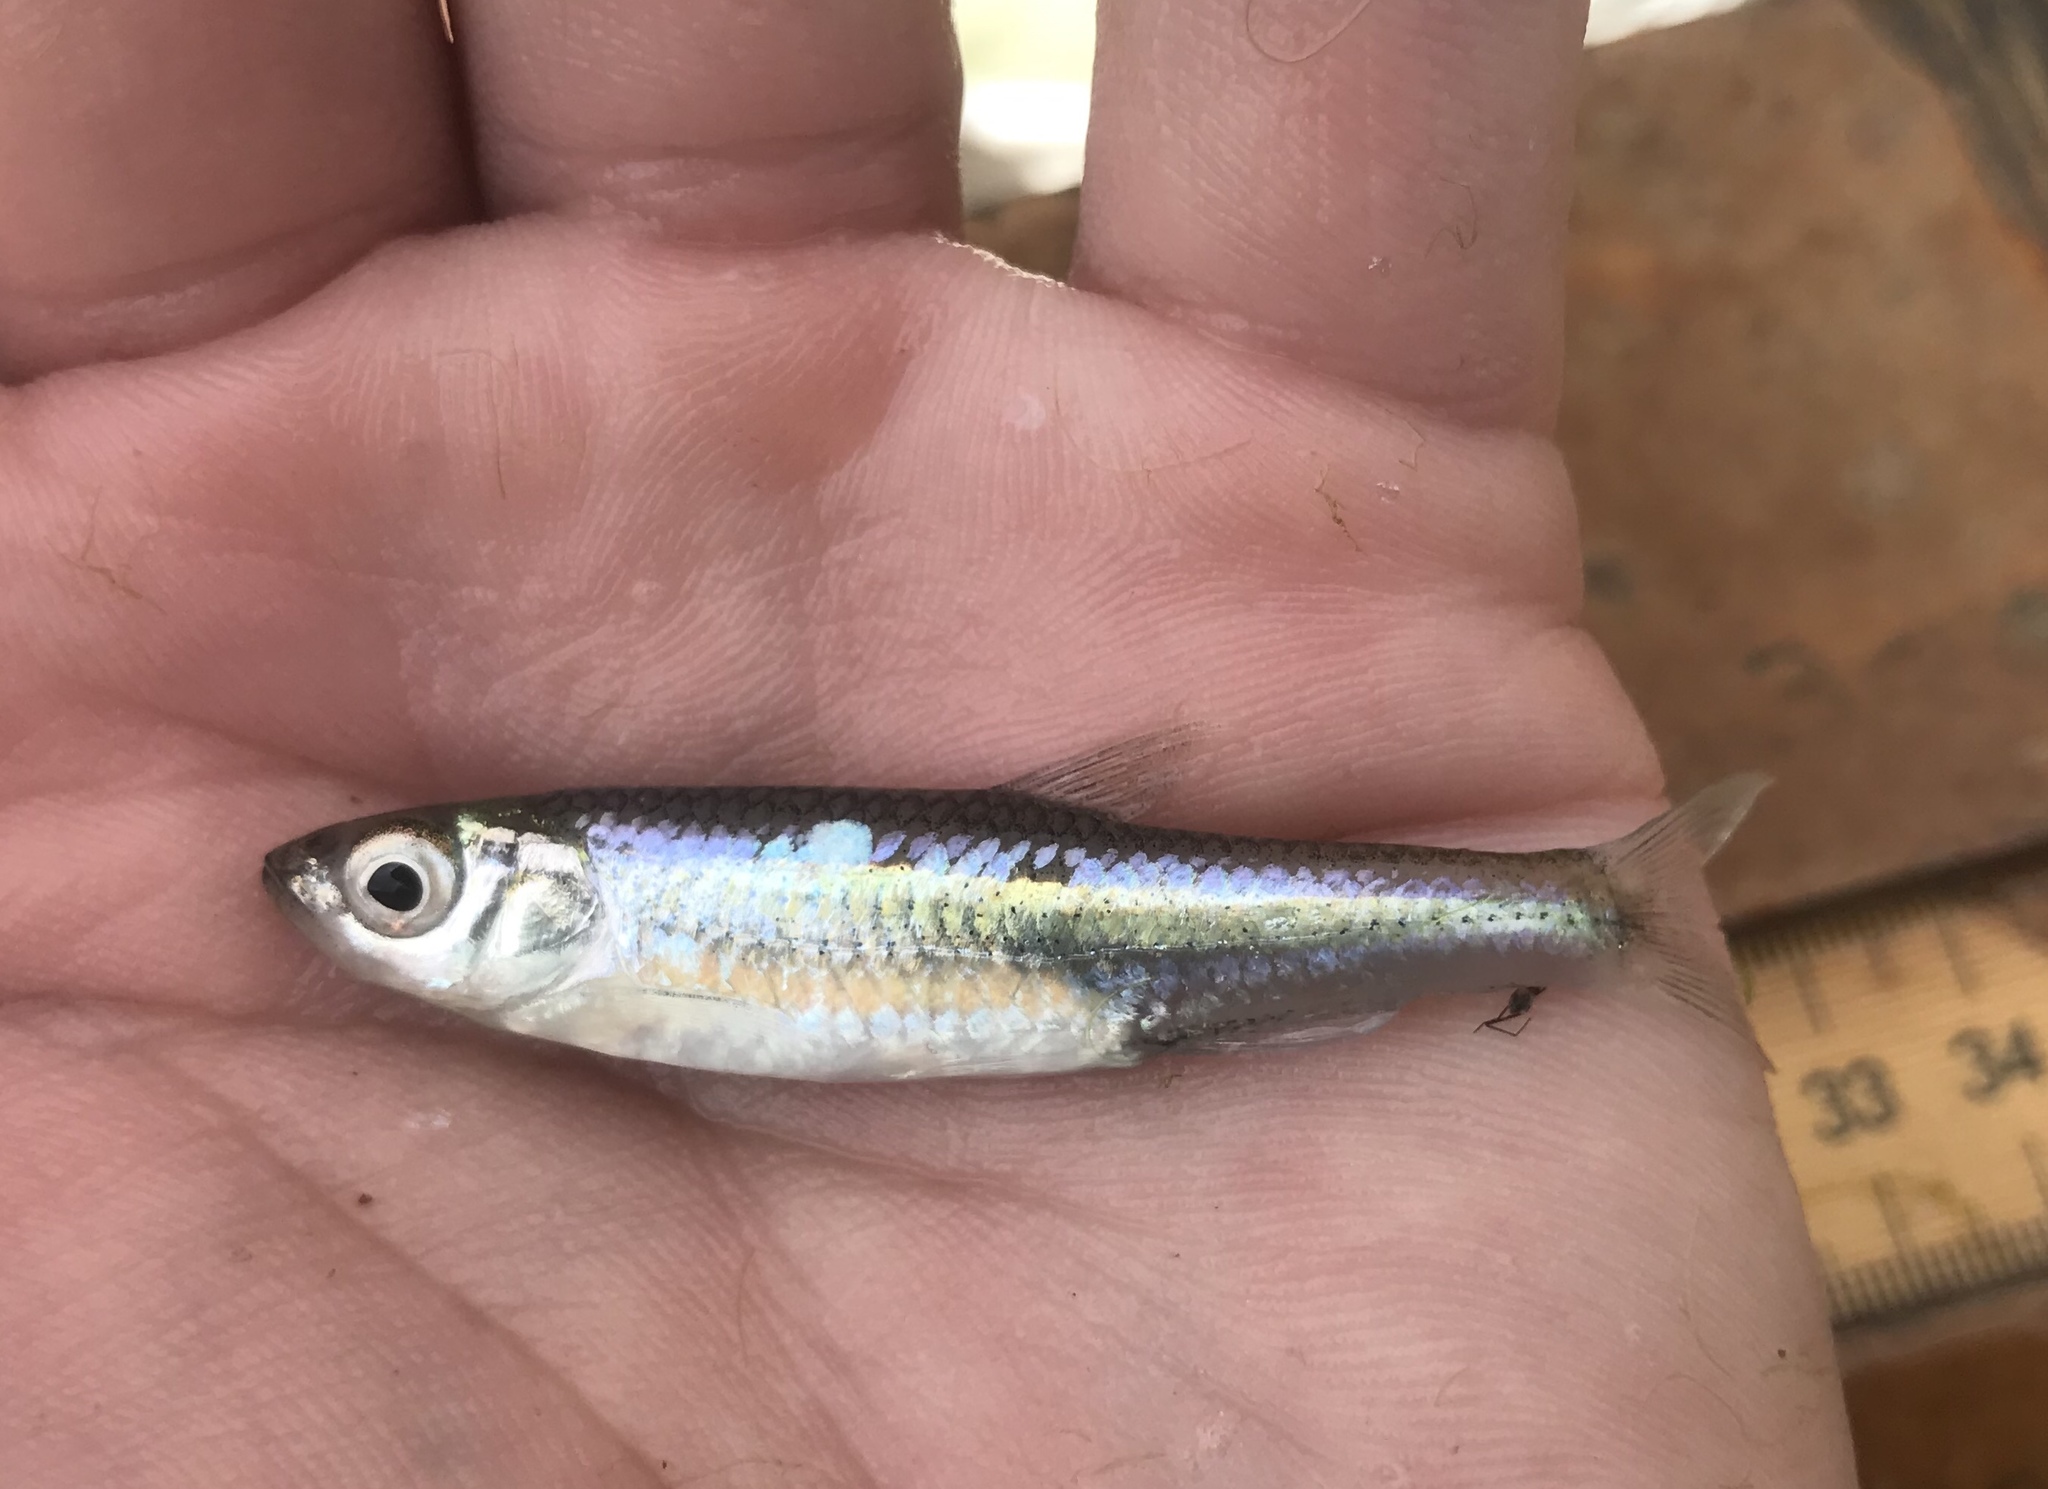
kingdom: Animalia
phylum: Chordata
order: Cypriniformes
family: Cyprinidae
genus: Notropis
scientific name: Notropis amabilis
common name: Texas shiner
